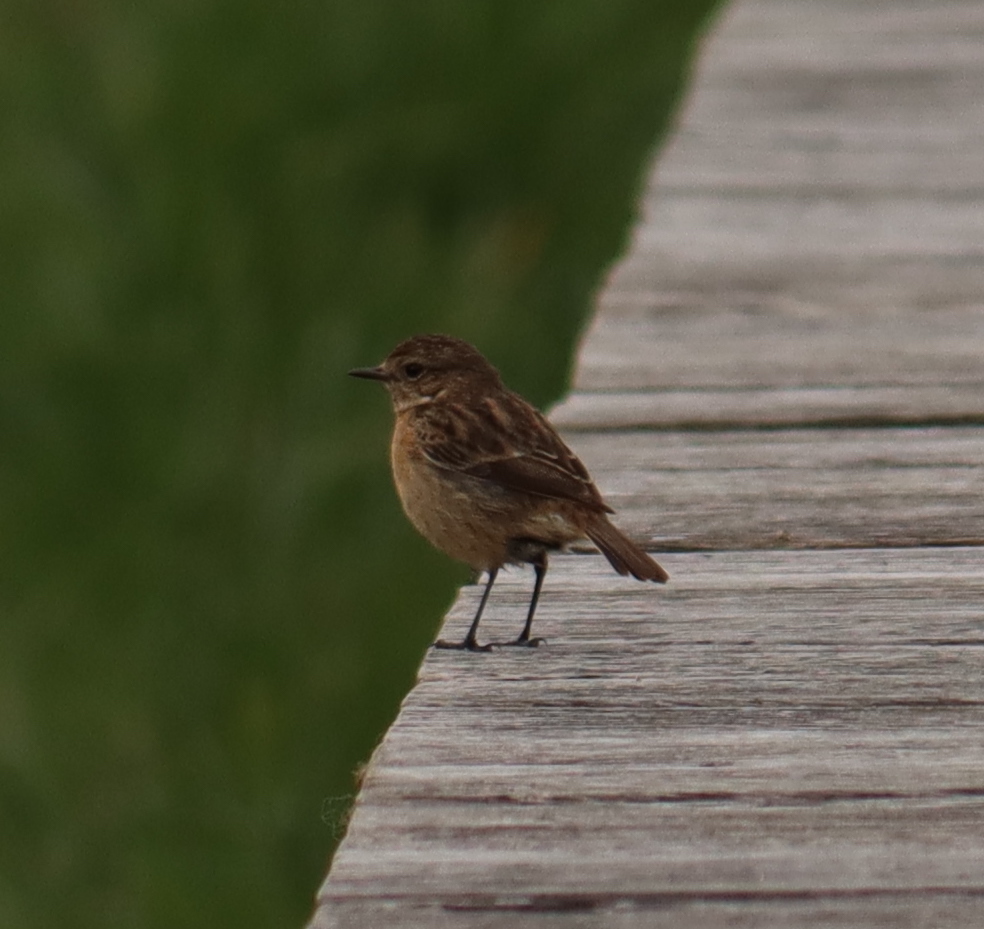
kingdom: Animalia
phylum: Chordata
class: Aves
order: Passeriformes
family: Muscicapidae
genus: Saxicola
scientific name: Saxicola rubicola
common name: European stonechat
